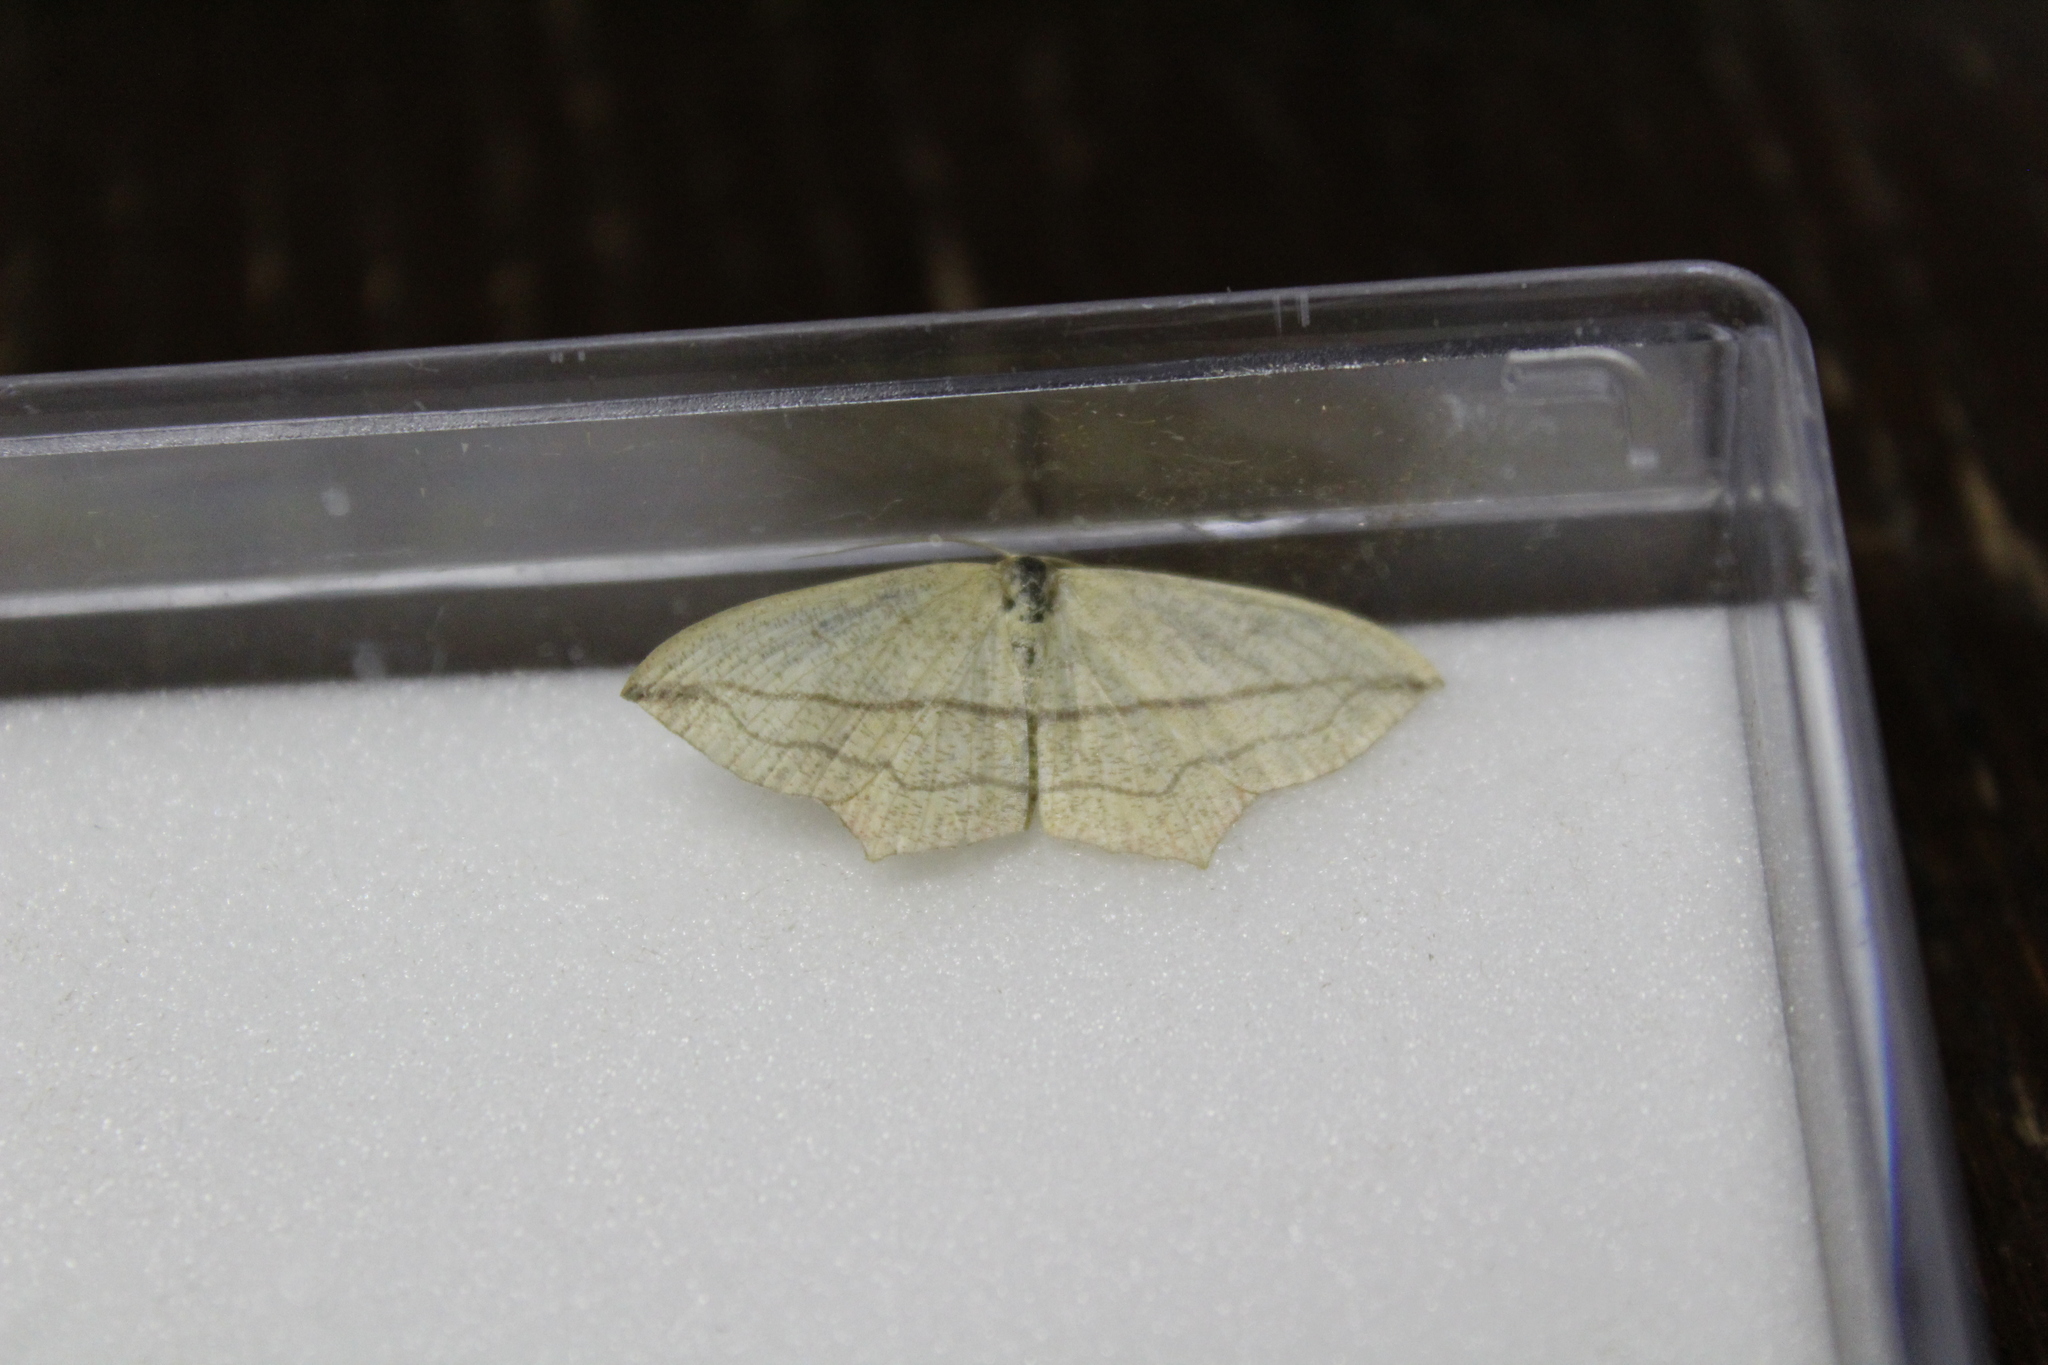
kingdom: Animalia
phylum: Arthropoda
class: Insecta
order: Lepidoptera
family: Geometridae
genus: Timandra
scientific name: Timandra comae
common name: Blood-vein
